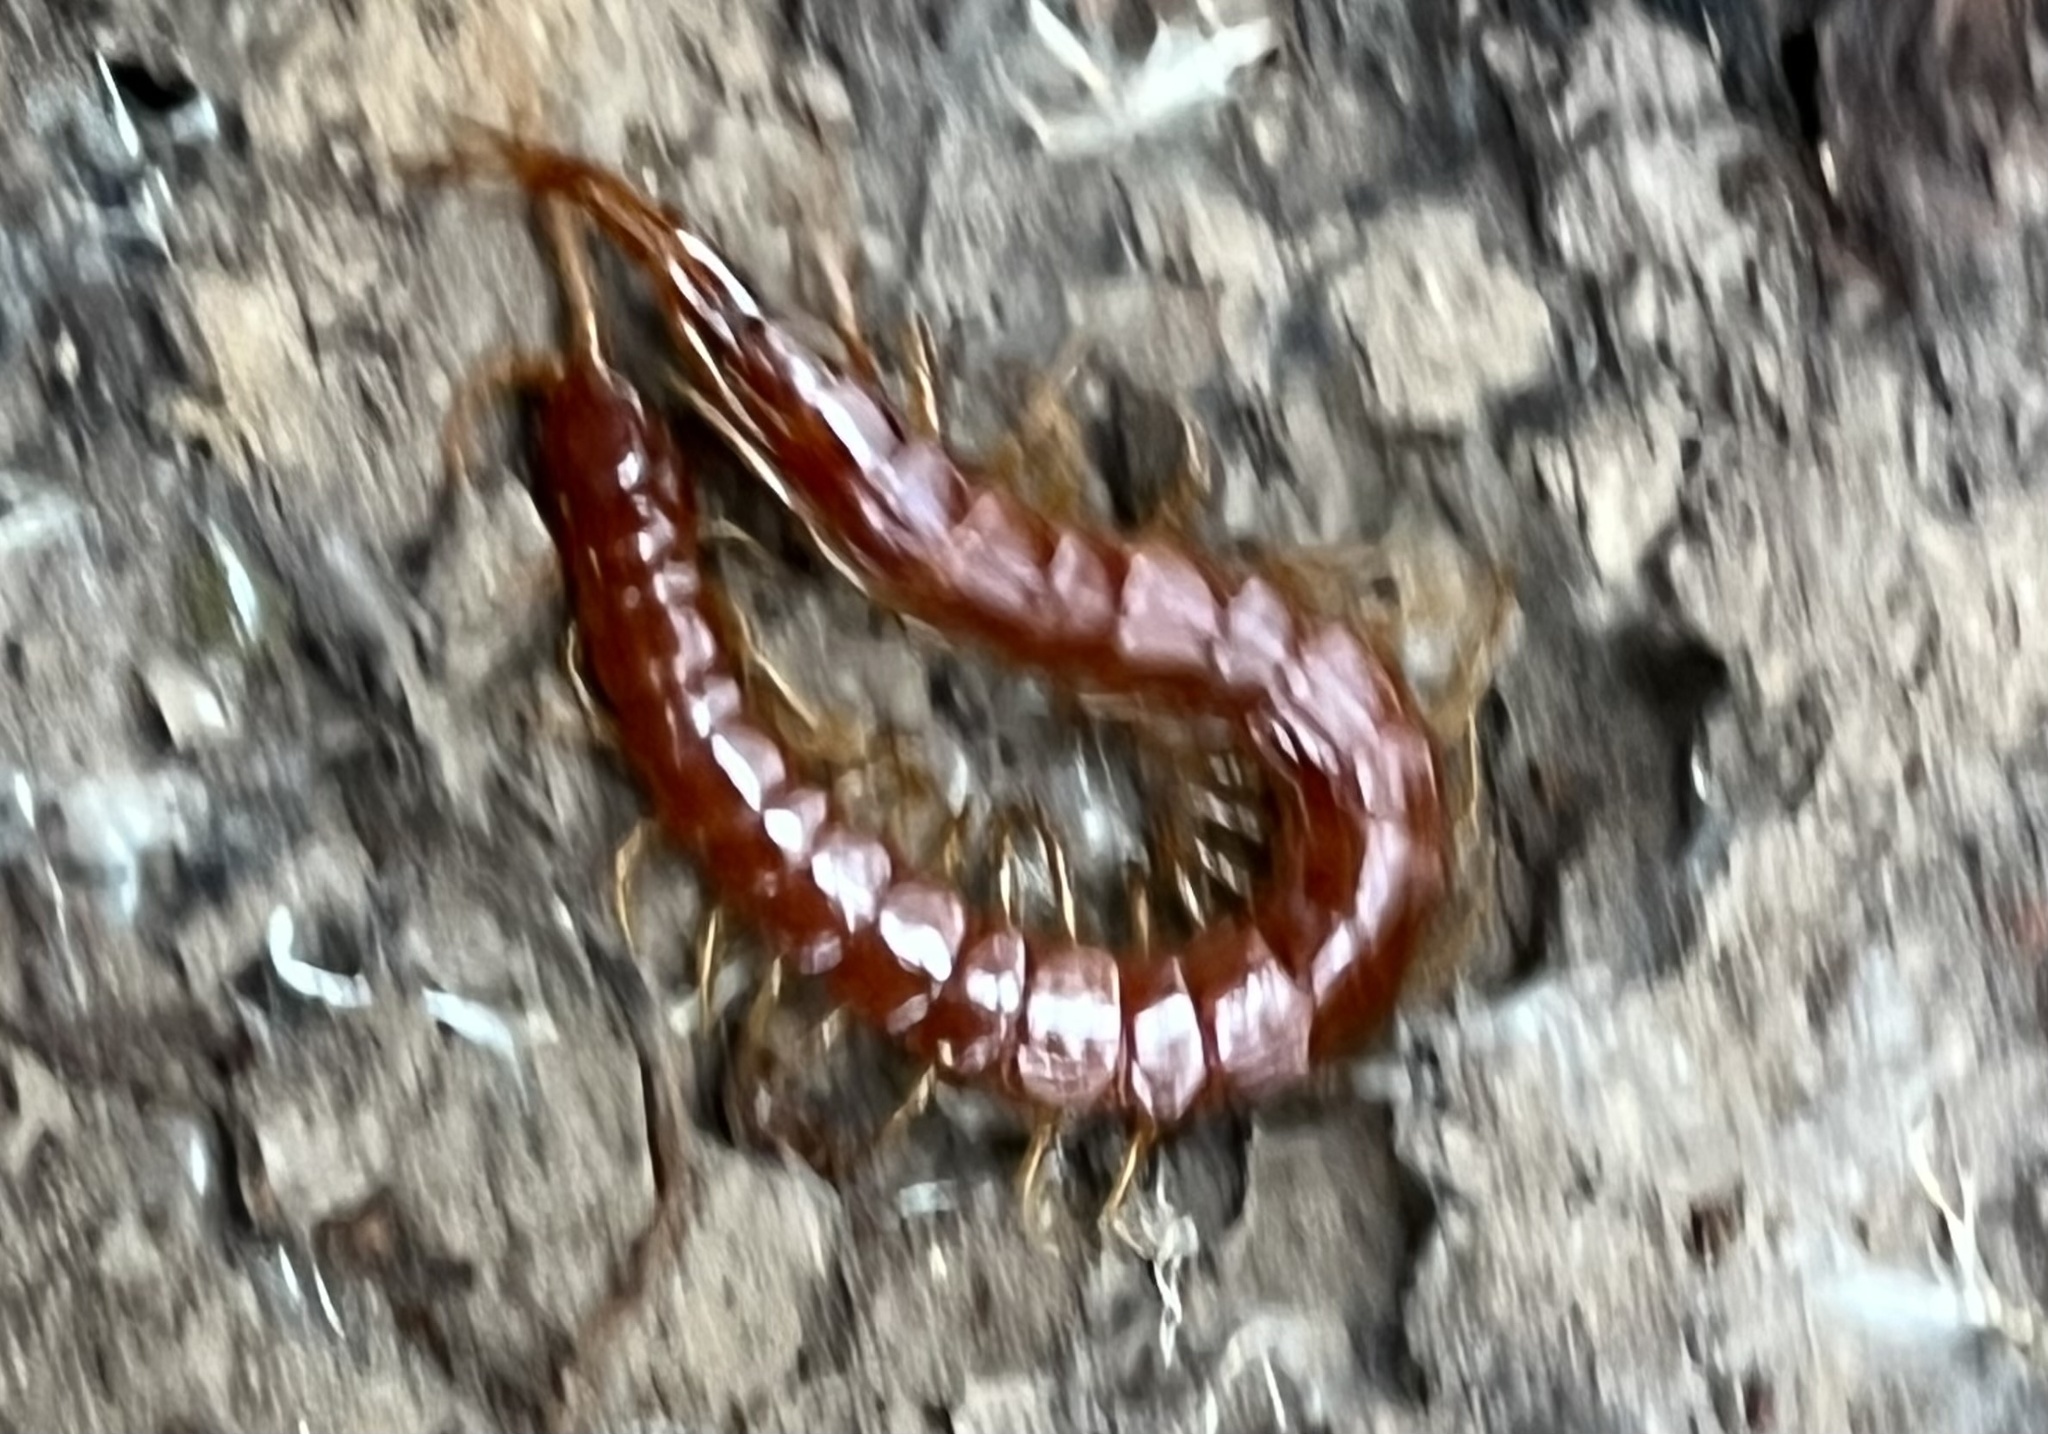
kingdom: Animalia
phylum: Arthropoda
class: Chilopoda
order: Scolopendromorpha
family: Scolopocryptopidae
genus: Scolopocryptops
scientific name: Scolopocryptops spinicaudus
